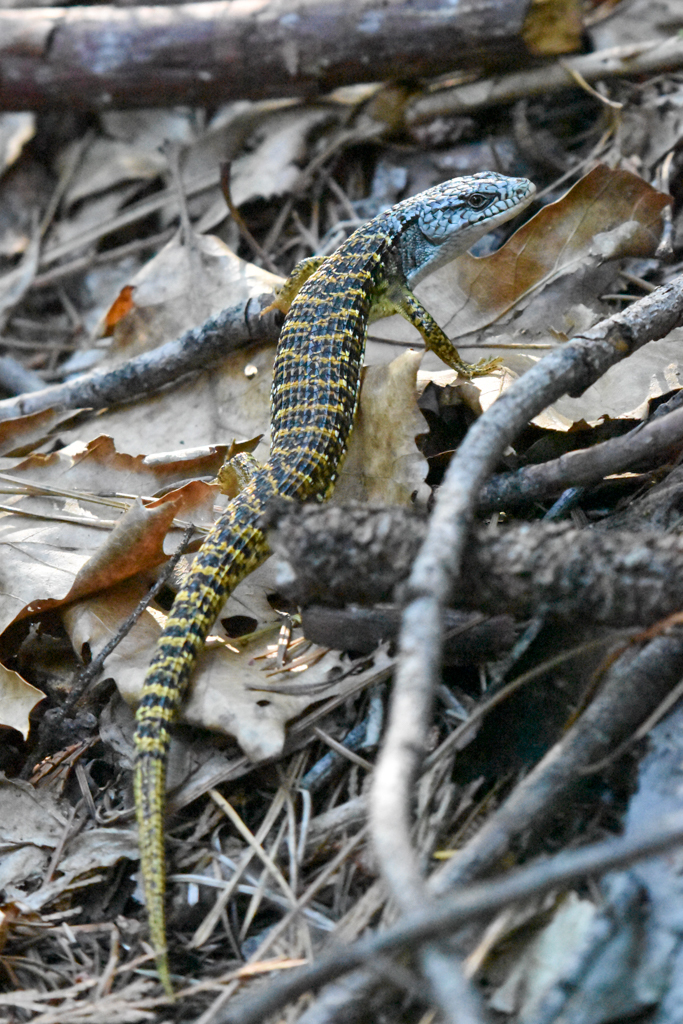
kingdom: Animalia
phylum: Chordata
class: Squamata
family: Anguidae
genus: Elgaria
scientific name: Elgaria coerulea
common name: Northern alligator lizard
